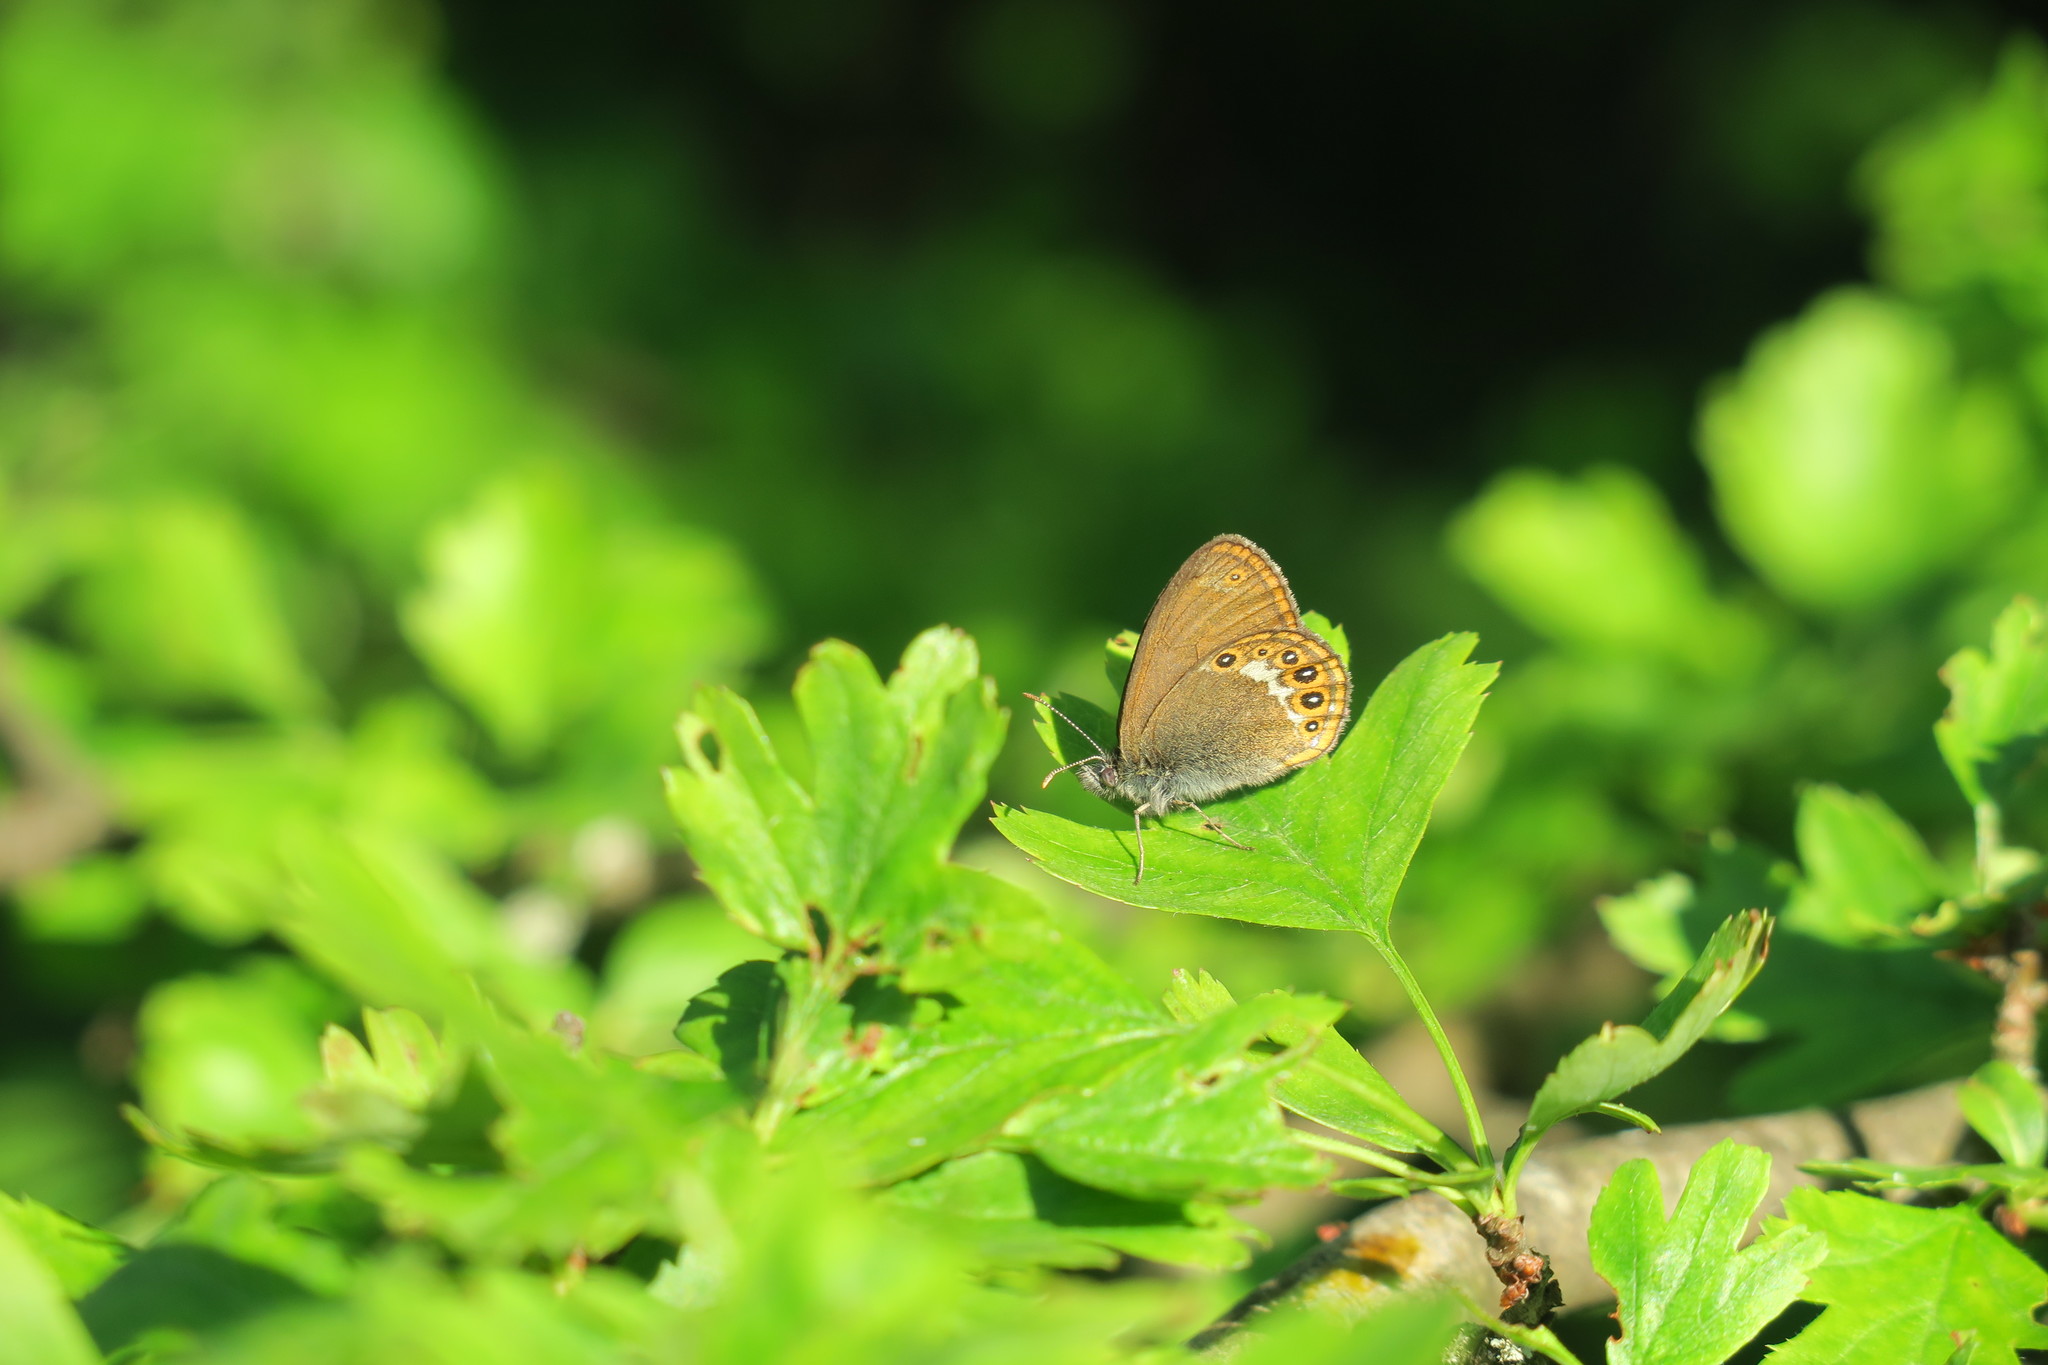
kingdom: Animalia
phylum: Arthropoda
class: Insecta
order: Lepidoptera
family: Nymphalidae
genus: Coenonympha
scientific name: Coenonympha hero
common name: Scarce heath
